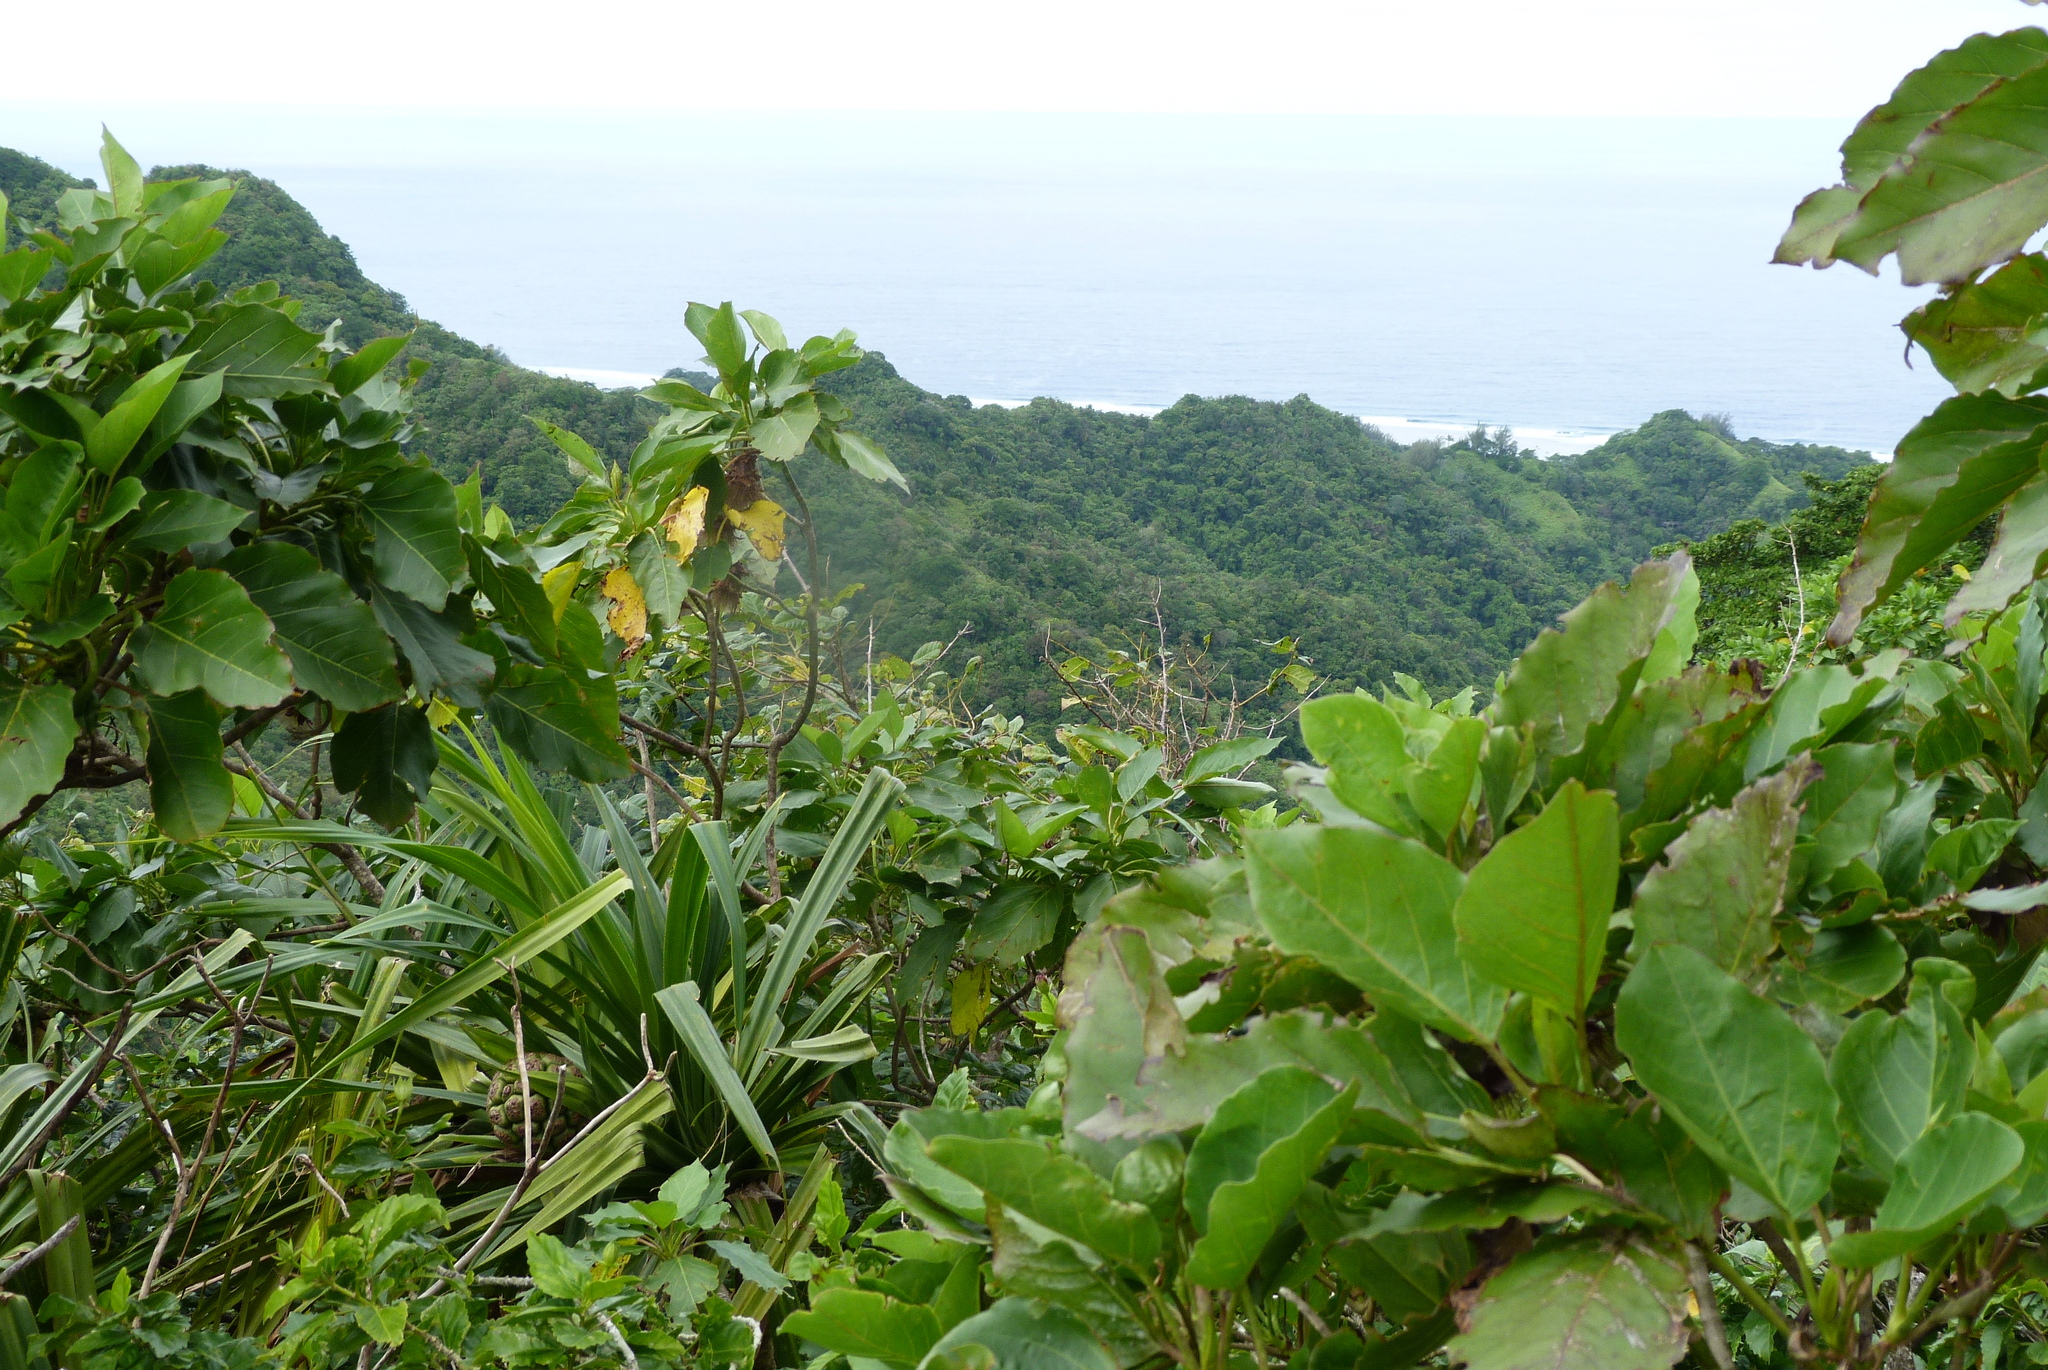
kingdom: Plantae
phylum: Tracheophyta
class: Liliopsida
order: Pandanales
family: Pandanaceae
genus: Freycinetia
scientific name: Freycinetia arborea
